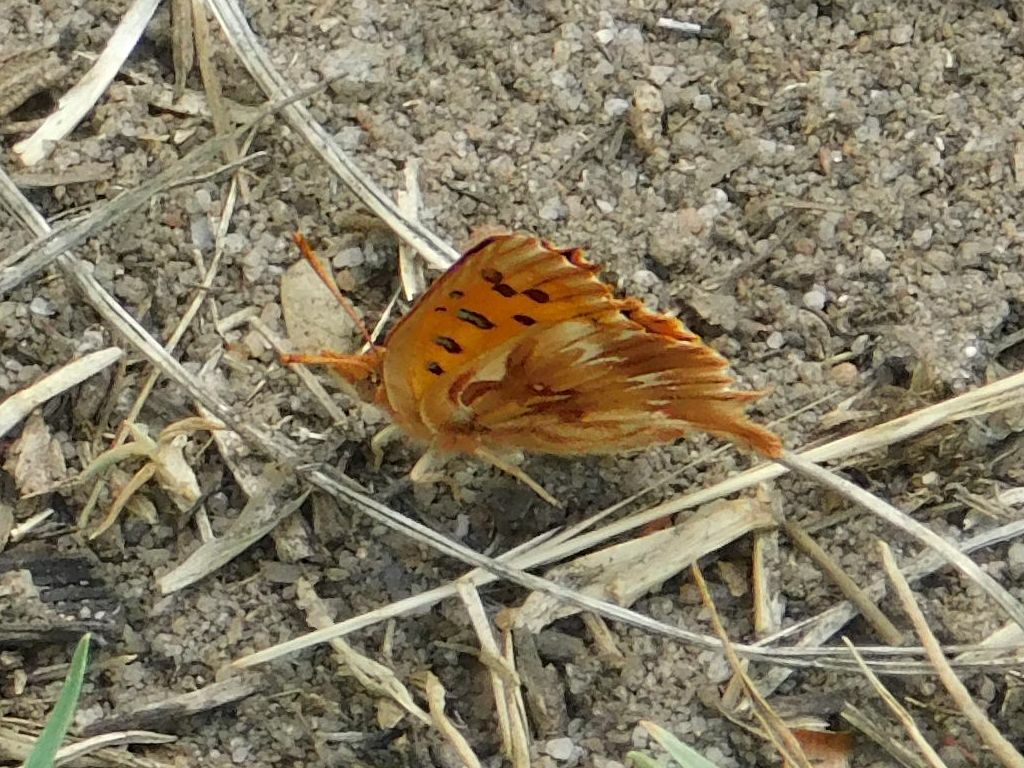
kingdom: Animalia
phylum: Arthropoda
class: Insecta
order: Lepidoptera
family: Lycaenidae
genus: Chrysoritis
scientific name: Chrysoritis
